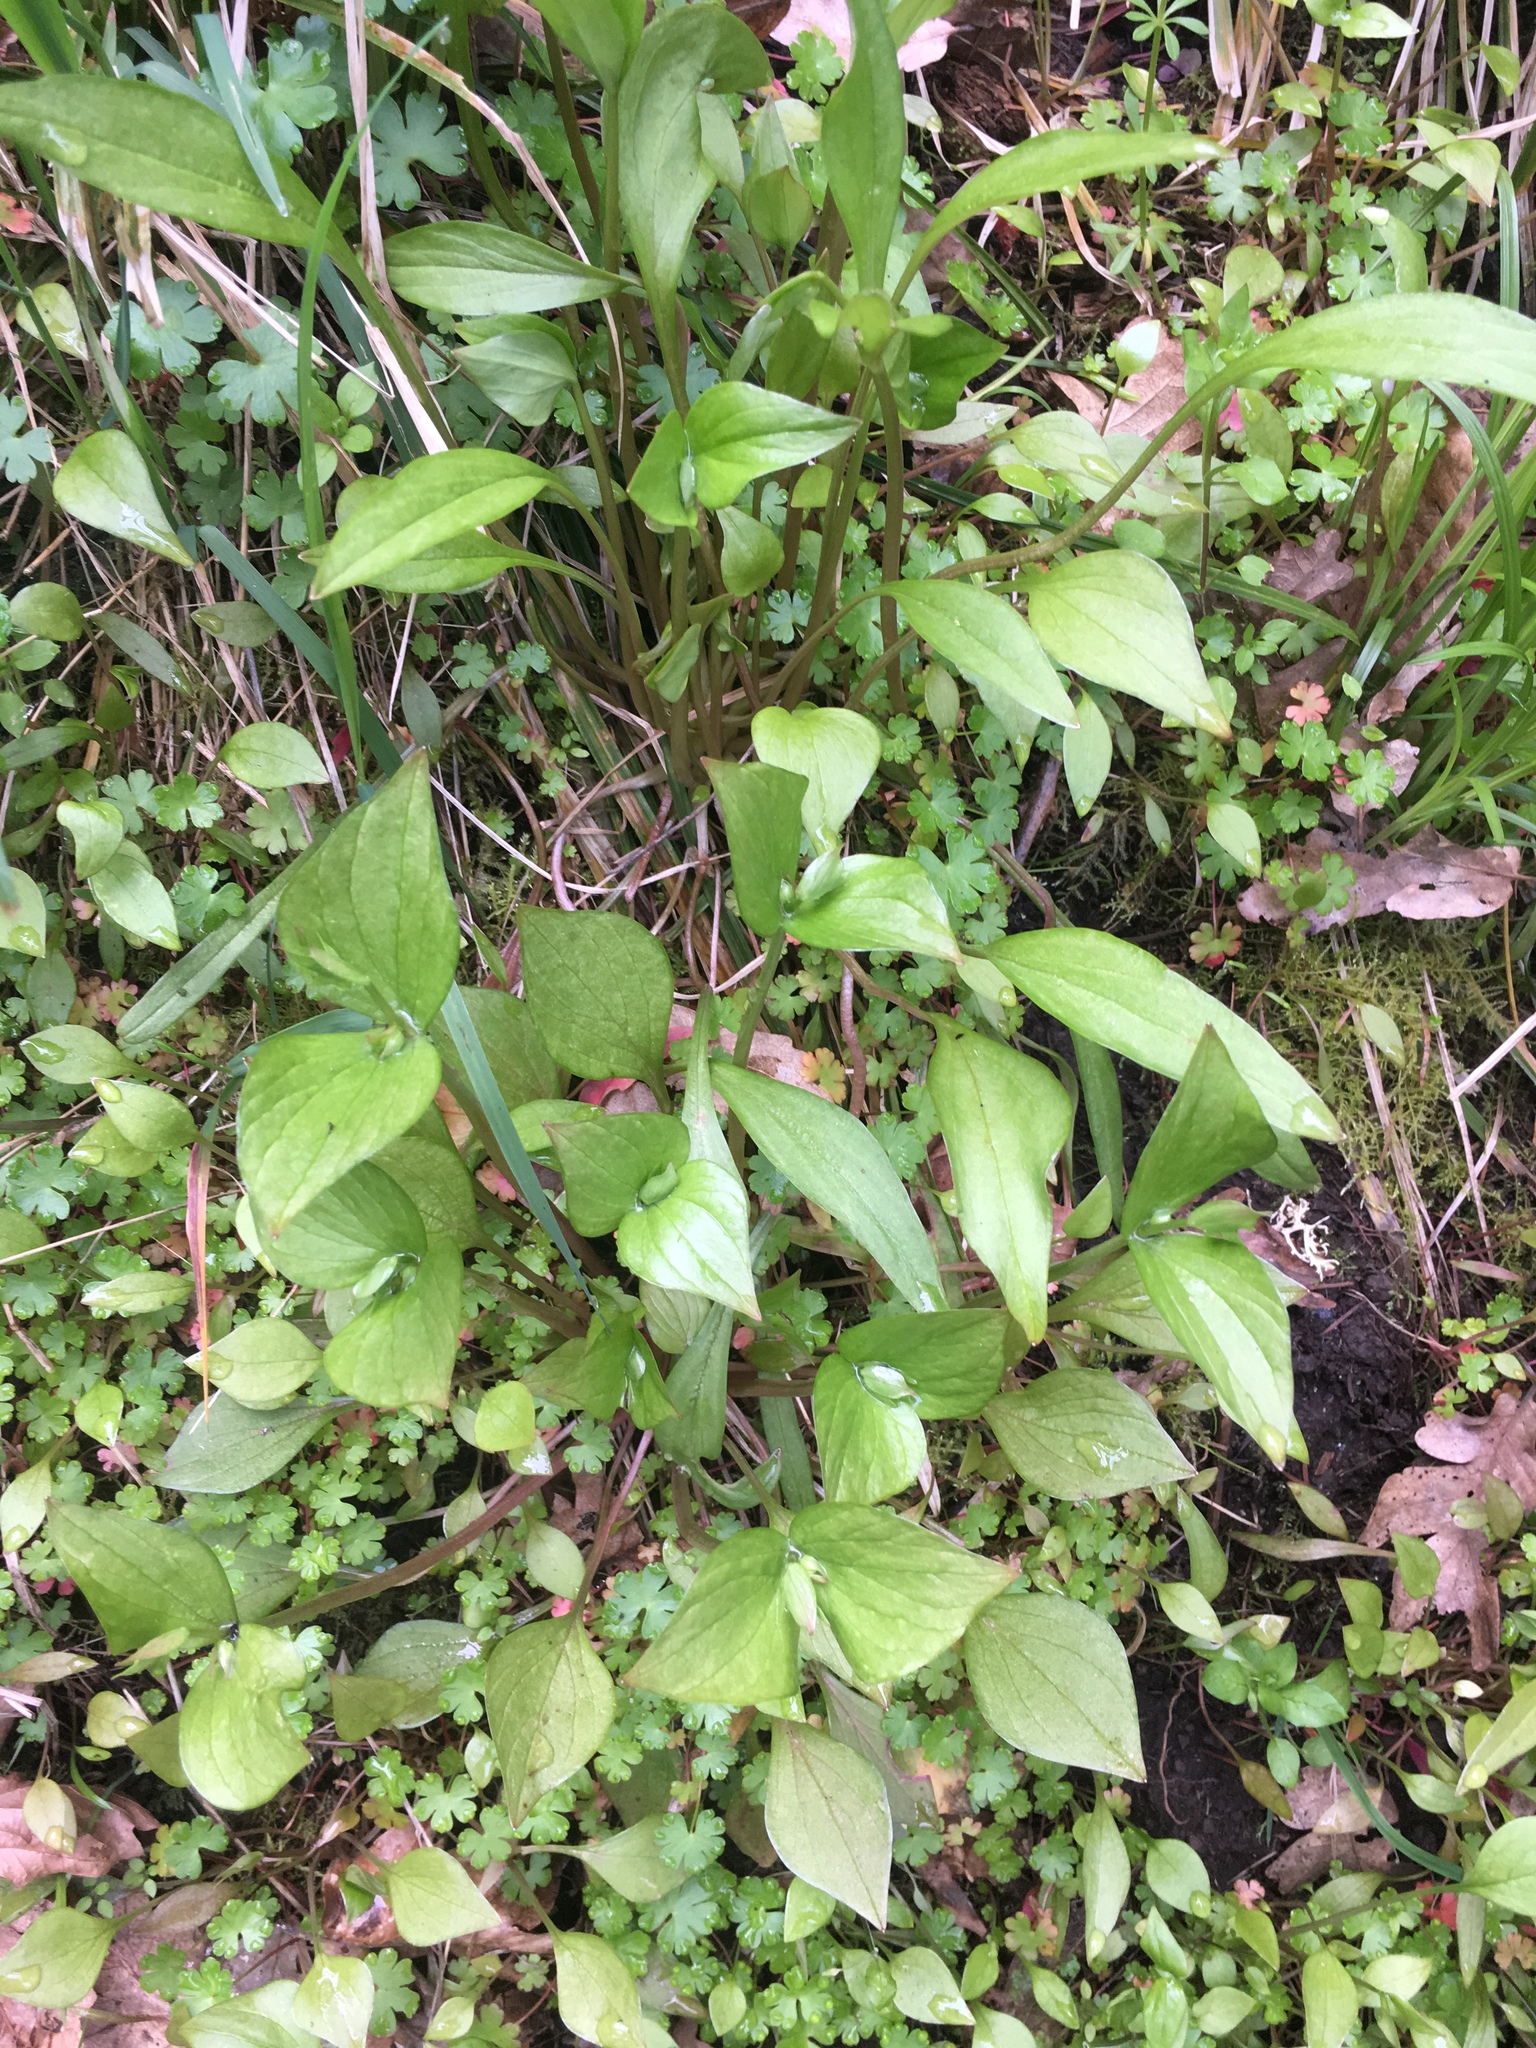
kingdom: Plantae
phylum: Tracheophyta
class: Magnoliopsida
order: Caryophyllales
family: Montiaceae
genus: Claytonia
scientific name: Claytonia sibirica
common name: Pink purslane
